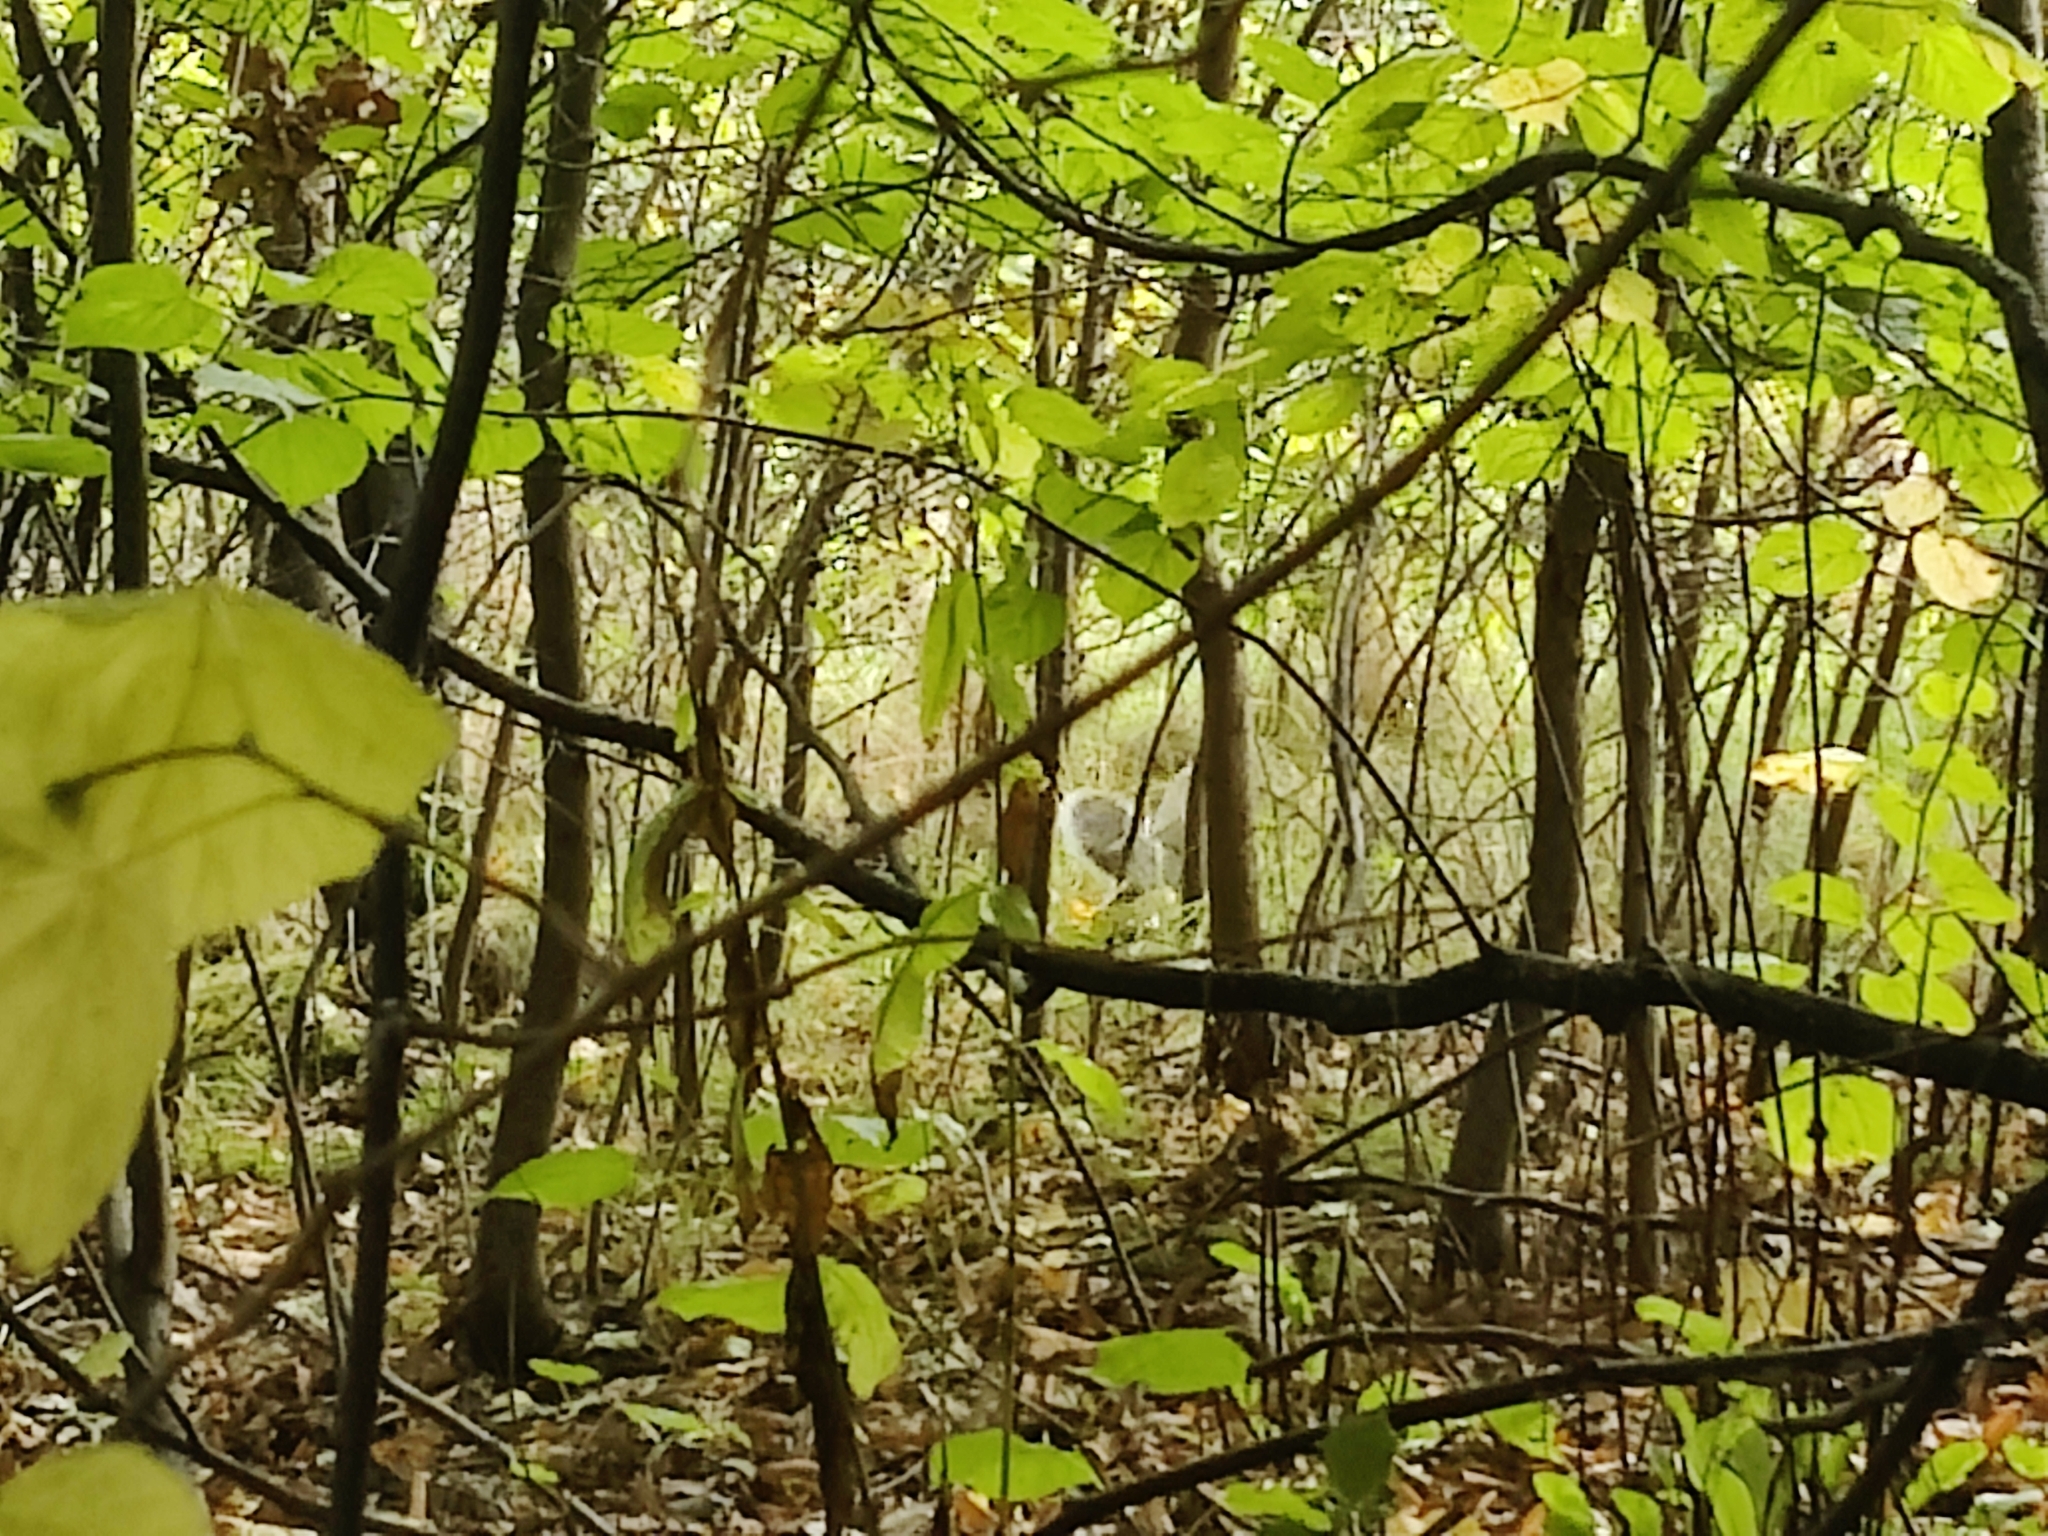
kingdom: Animalia
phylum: Chordata
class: Mammalia
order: Rodentia
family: Sciuridae
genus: Sciurus
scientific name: Sciurus carolinensis
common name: Eastern gray squirrel
